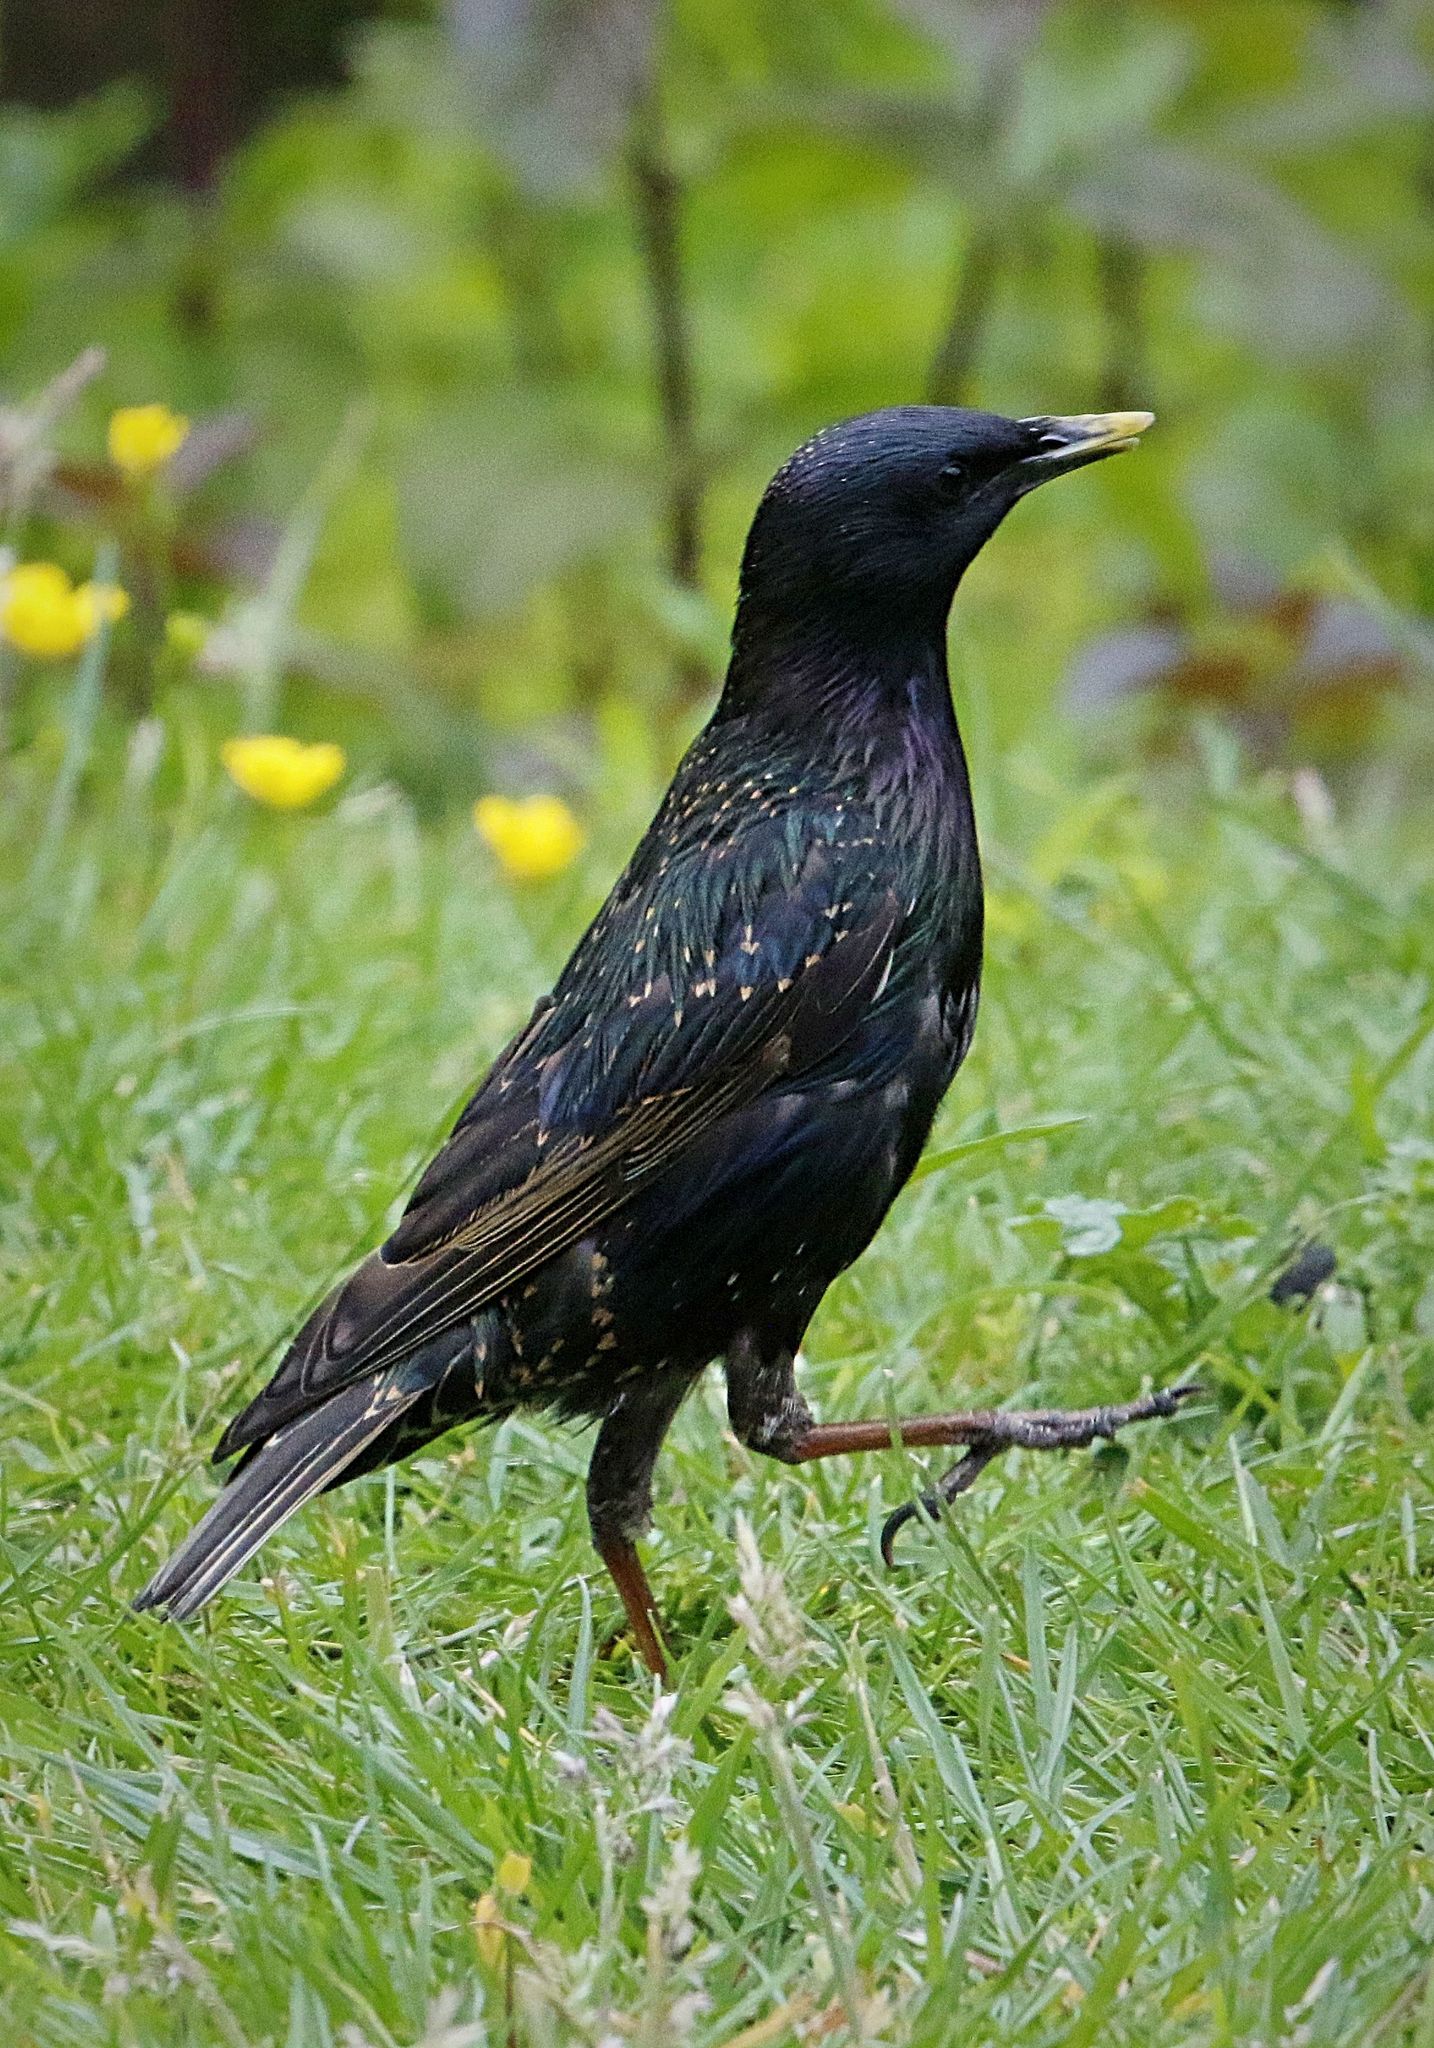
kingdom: Animalia
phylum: Chordata
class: Aves
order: Passeriformes
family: Sturnidae
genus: Sturnus
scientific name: Sturnus vulgaris
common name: Common starling
